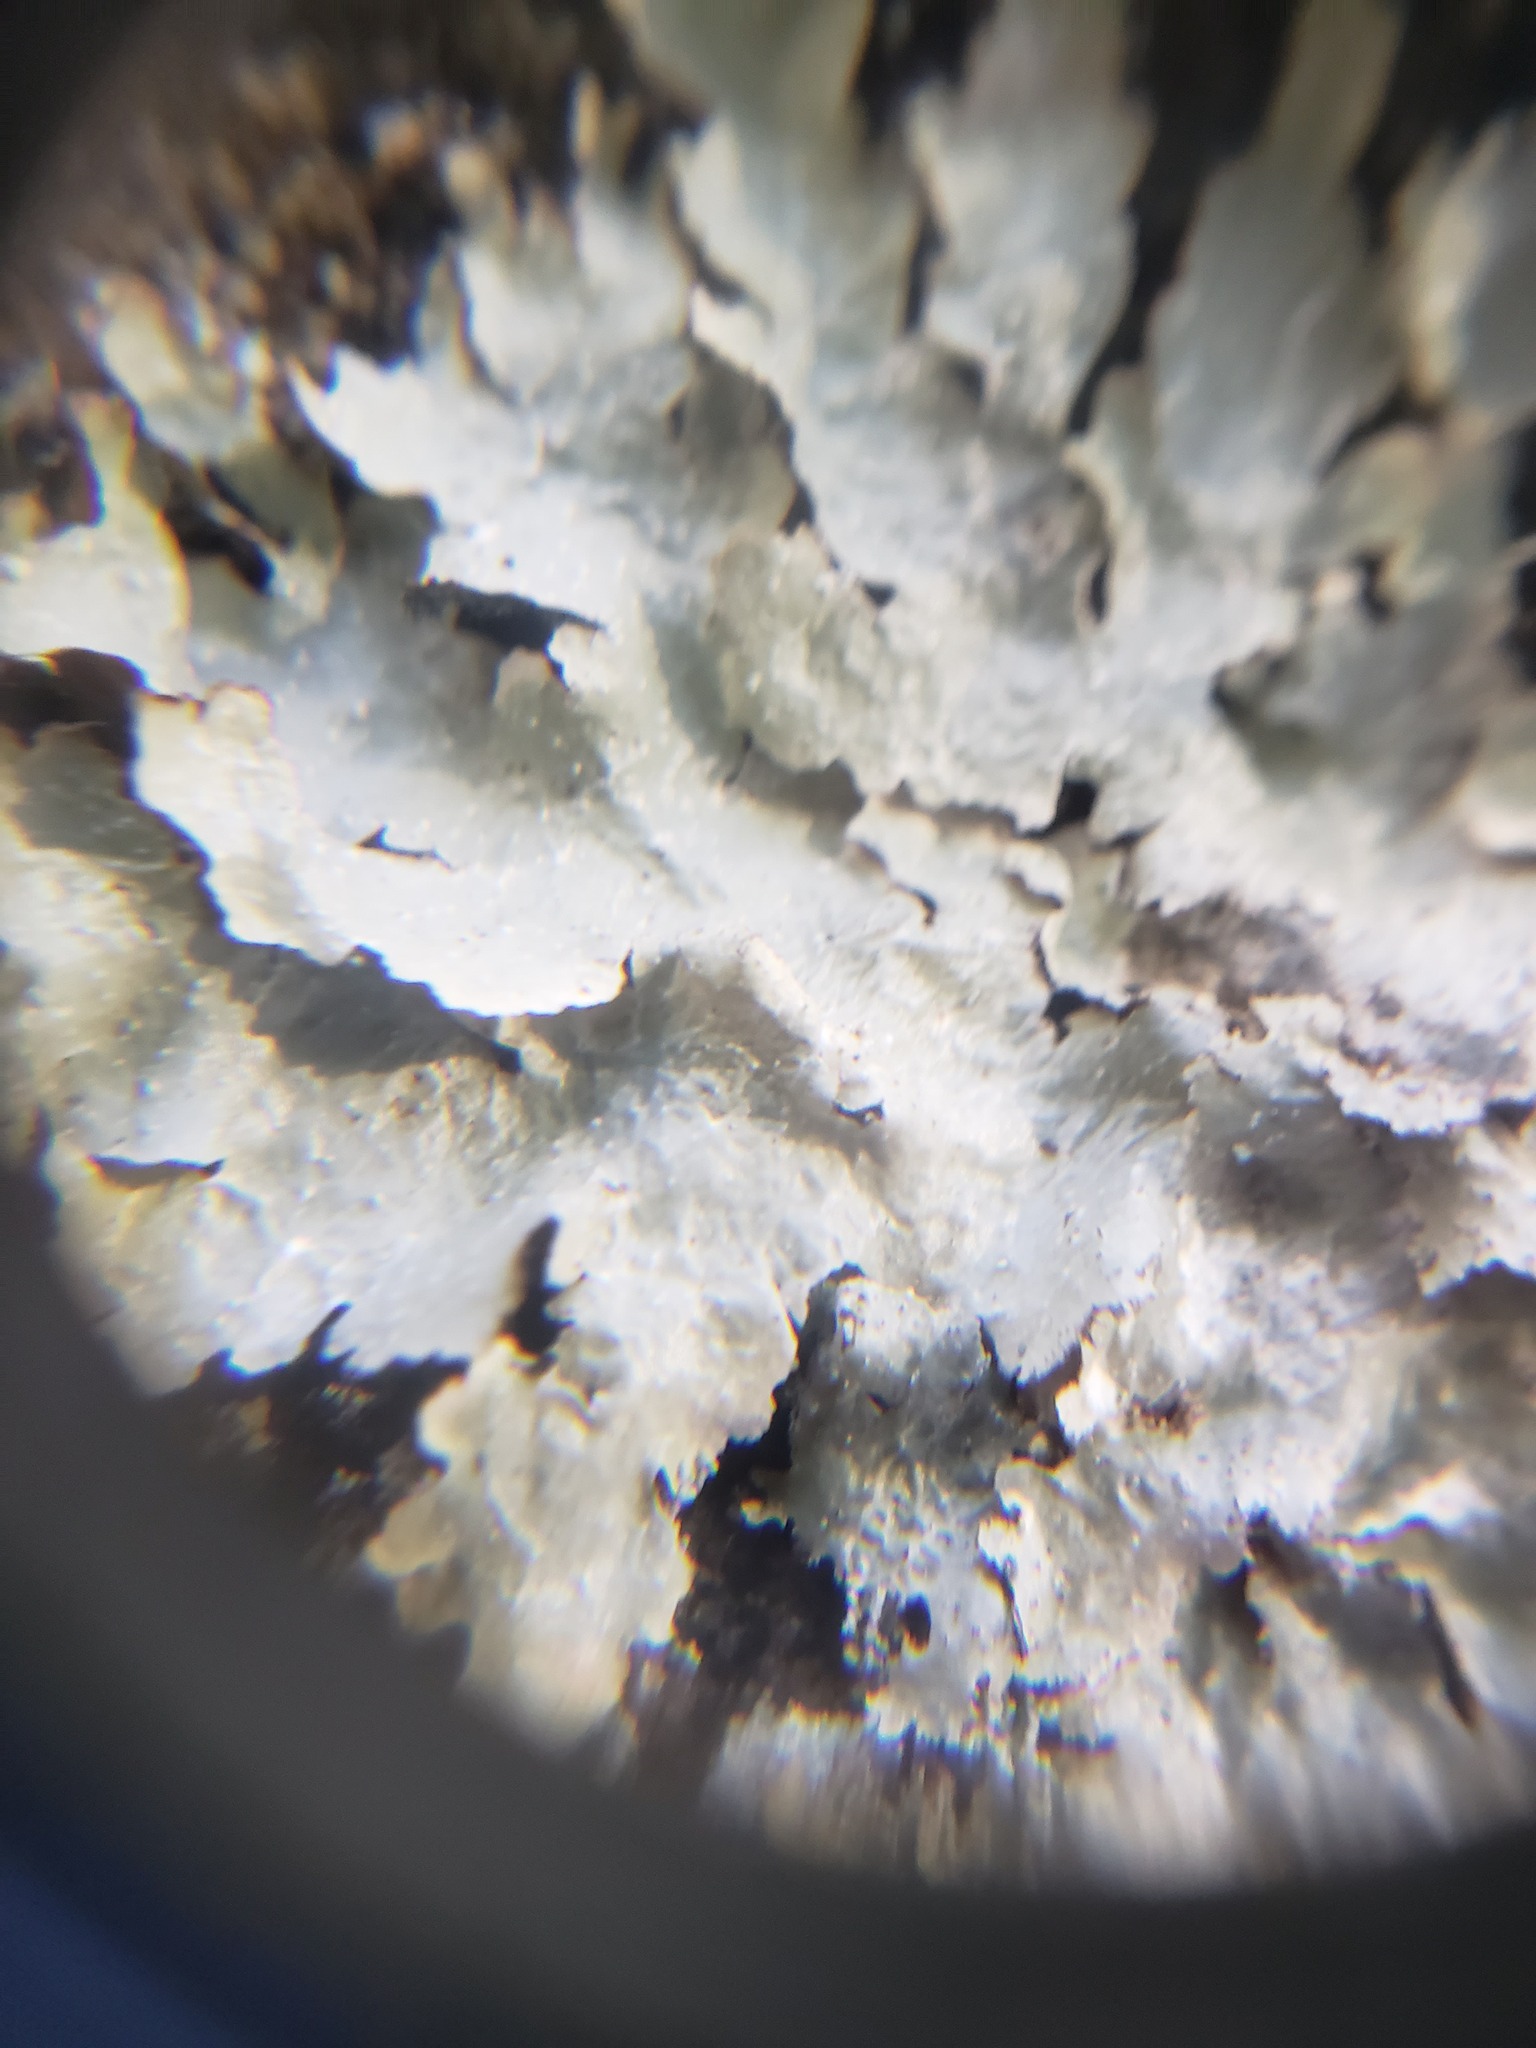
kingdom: Fungi
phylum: Ascomycota
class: Lecanoromycetes
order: Lecanorales
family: Parmeliaceae
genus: Punctelia
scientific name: Punctelia rudecta
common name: Rough speckled shield lichen
